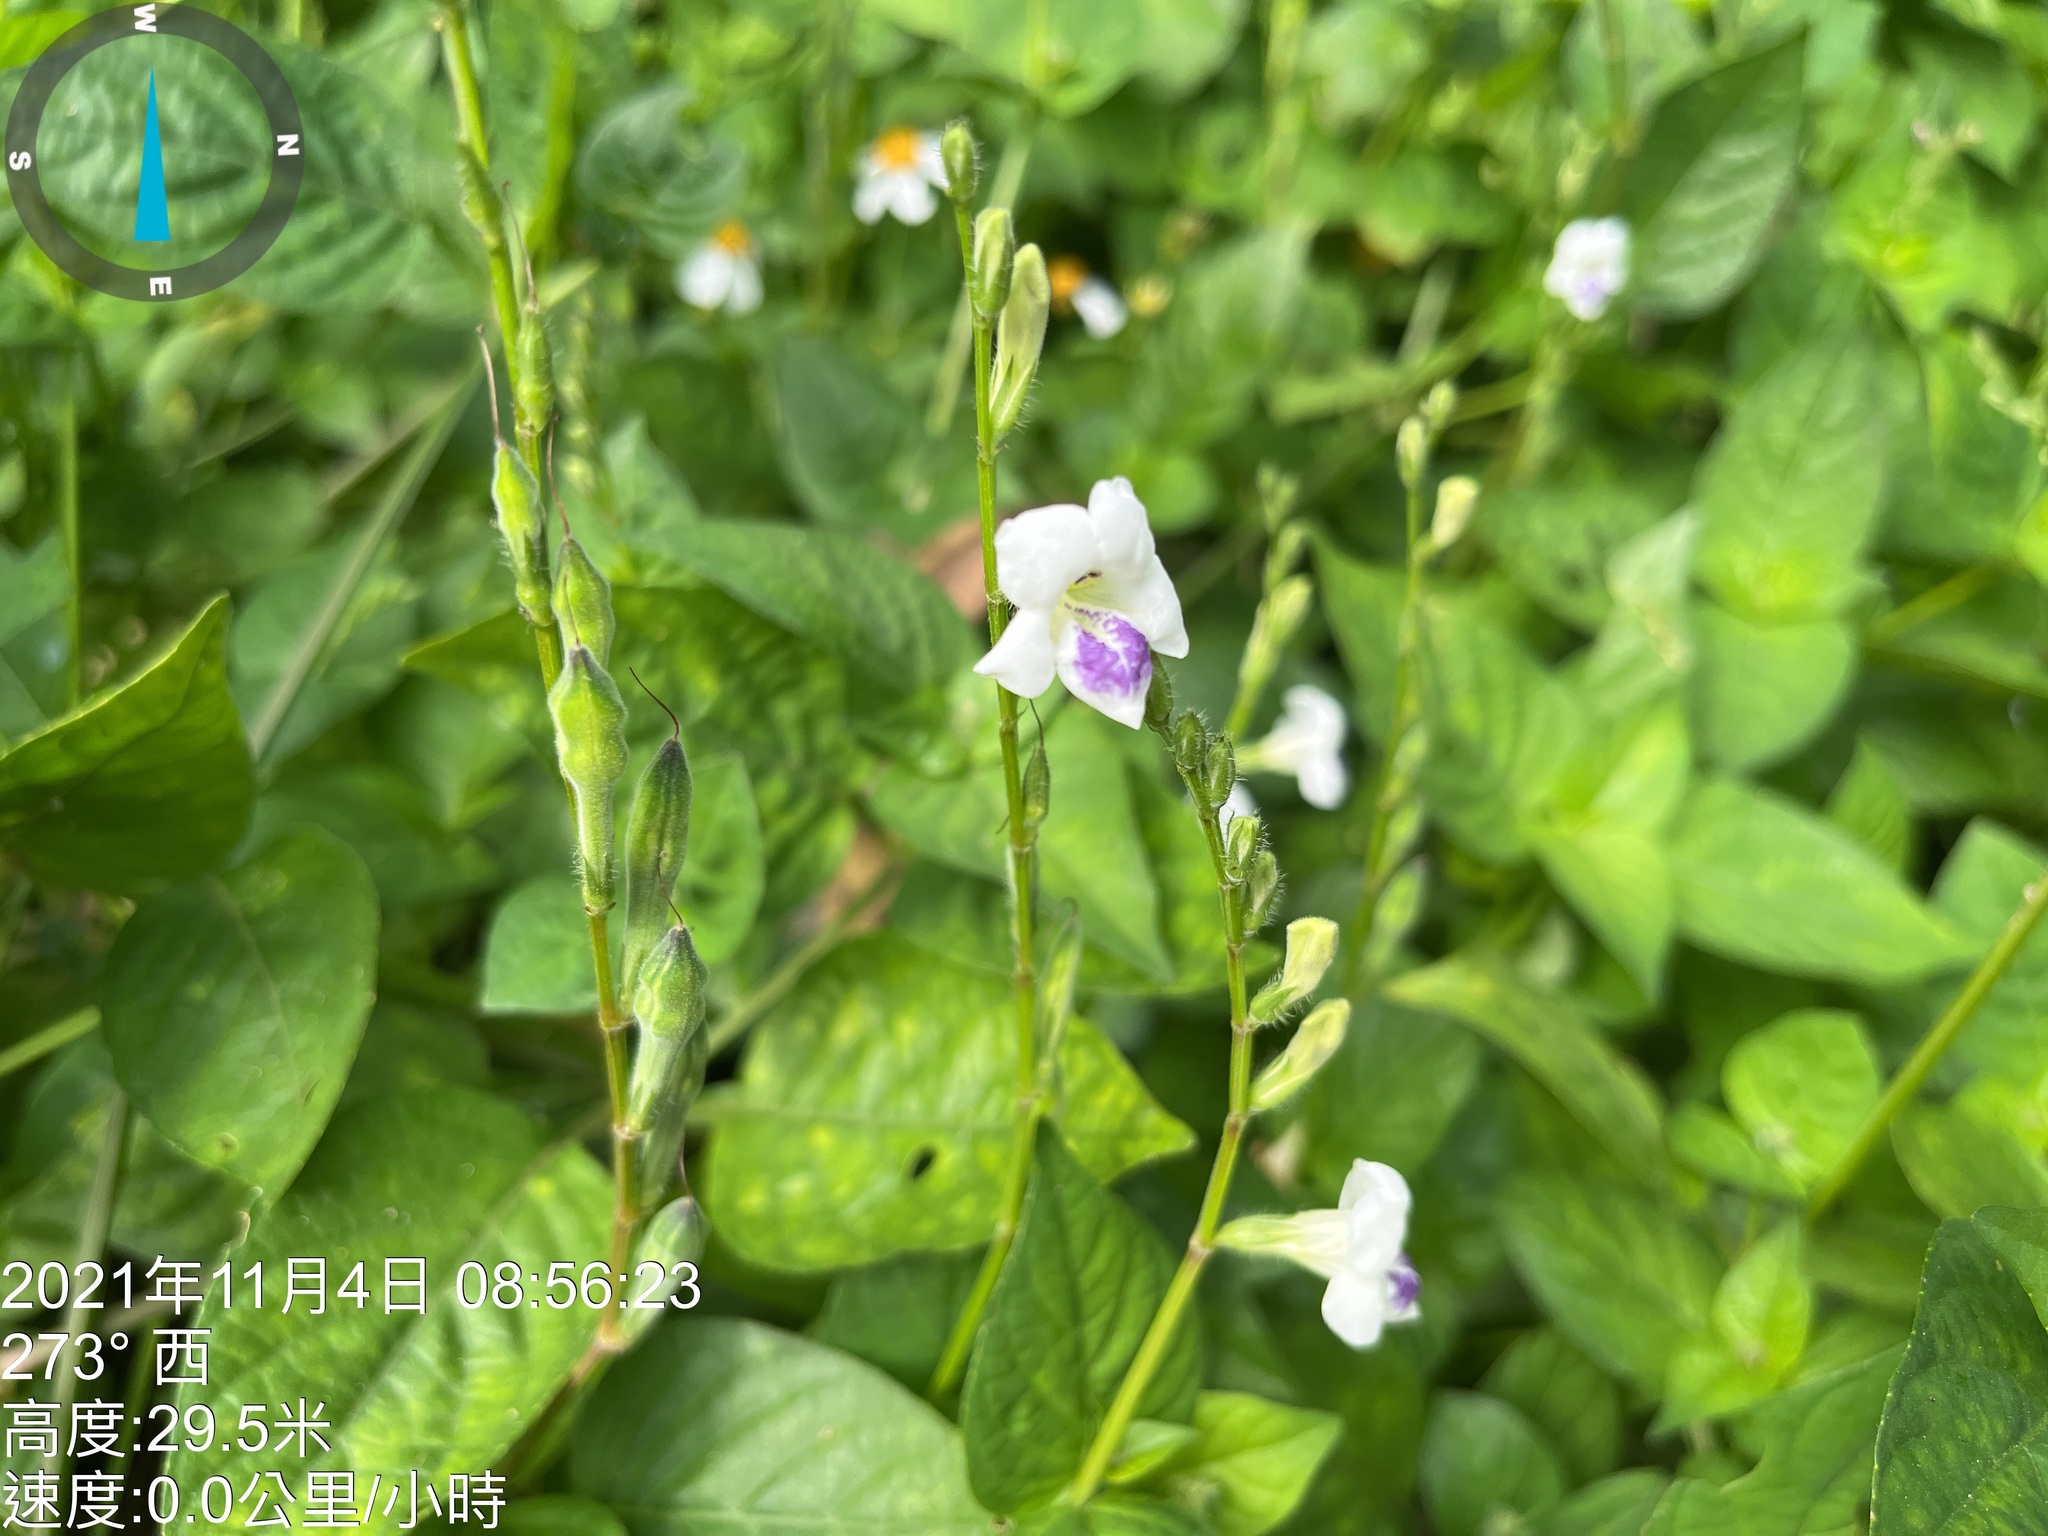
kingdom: Plantae
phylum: Tracheophyta
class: Magnoliopsida
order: Lamiales
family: Acanthaceae
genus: Asystasia
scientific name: Asystasia intrusa
